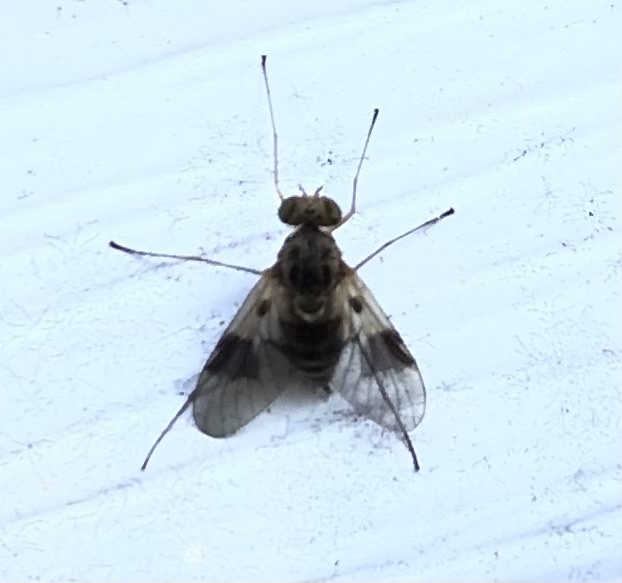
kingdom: Animalia
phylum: Arthropoda
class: Insecta
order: Diptera
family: Rhagionidae
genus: Chrysopilus
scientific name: Chrysopilus quadratus
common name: Quadrate snipe fly
